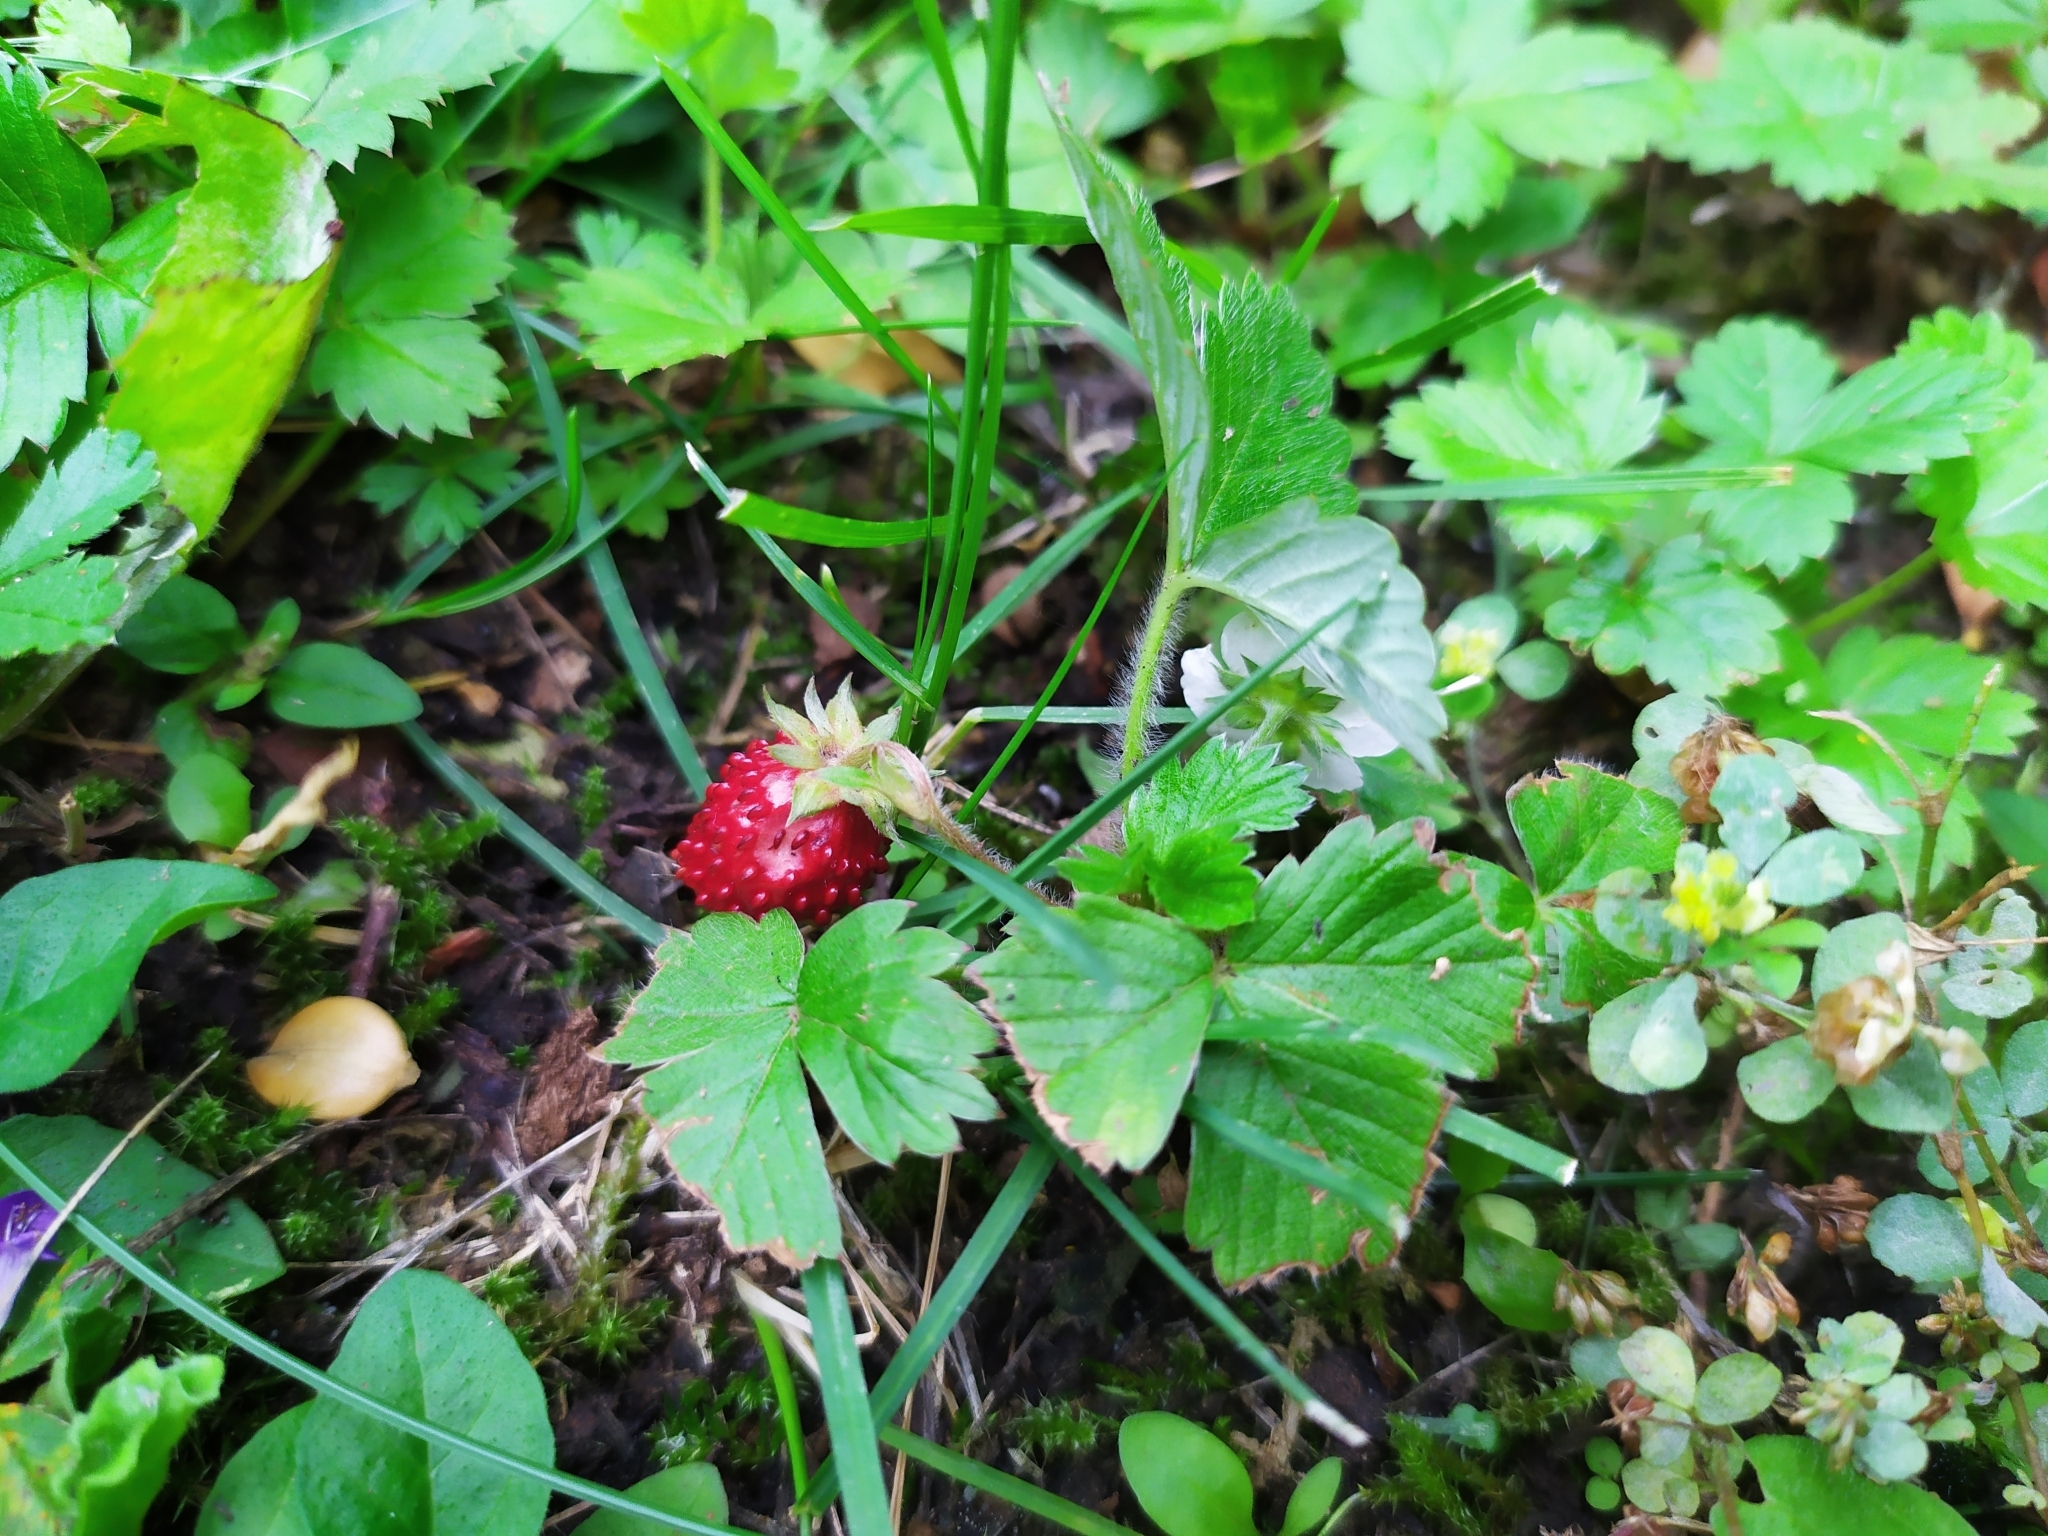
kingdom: Plantae
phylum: Tracheophyta
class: Magnoliopsida
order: Rosales
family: Rosaceae
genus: Fragaria
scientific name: Fragaria vesca
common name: Wild strawberry
